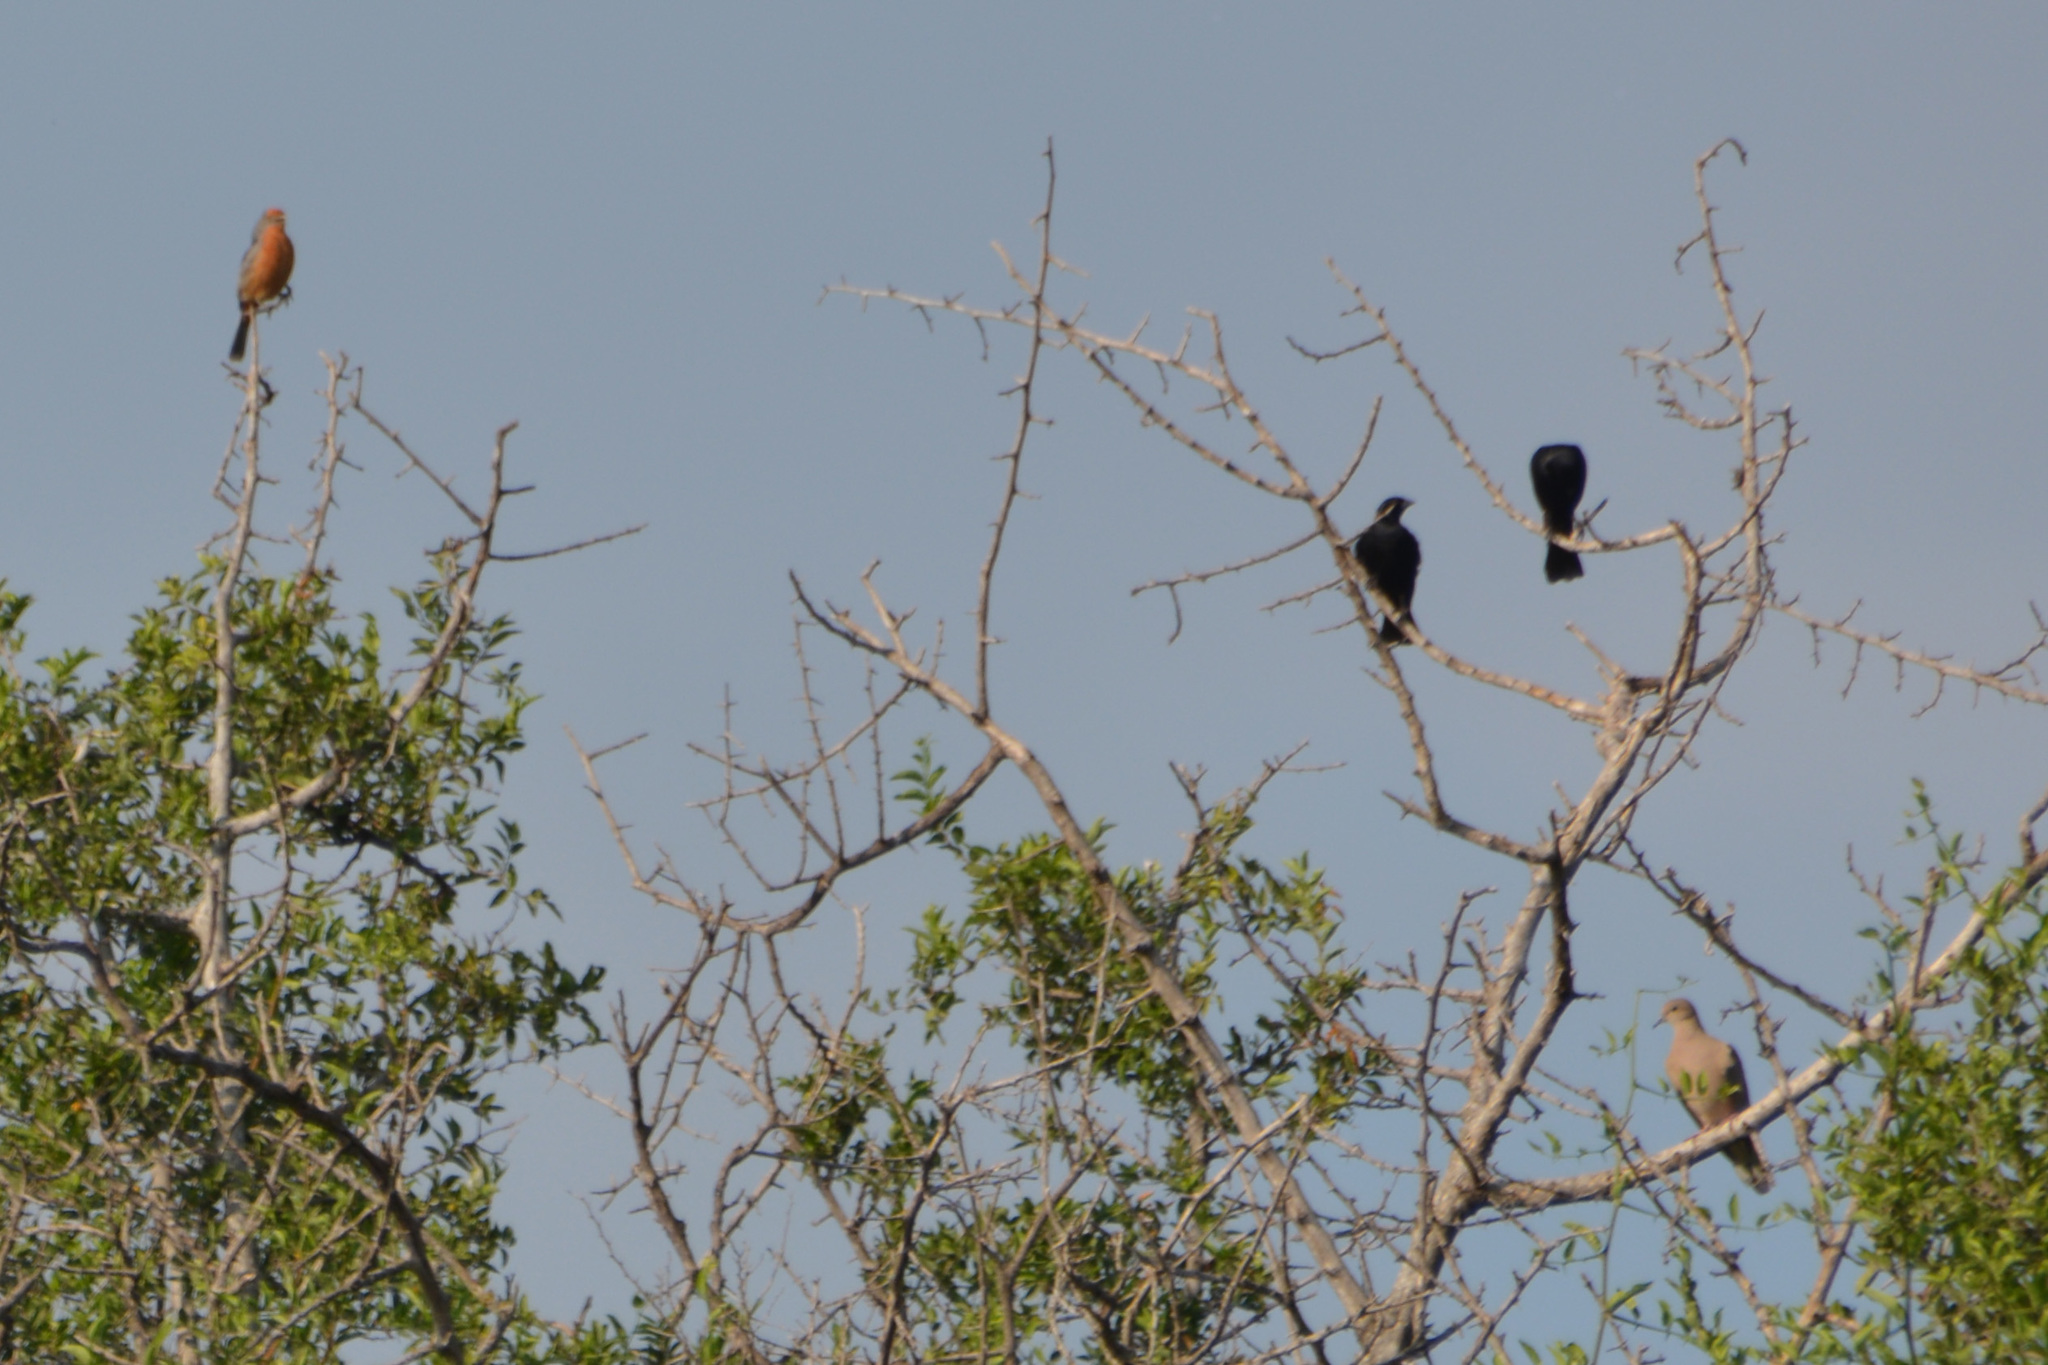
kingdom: Animalia
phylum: Chordata
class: Aves
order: Passeriformes
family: Cotingidae
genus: Phytotoma
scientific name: Phytotoma rutila
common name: White-tipped plantcutter
